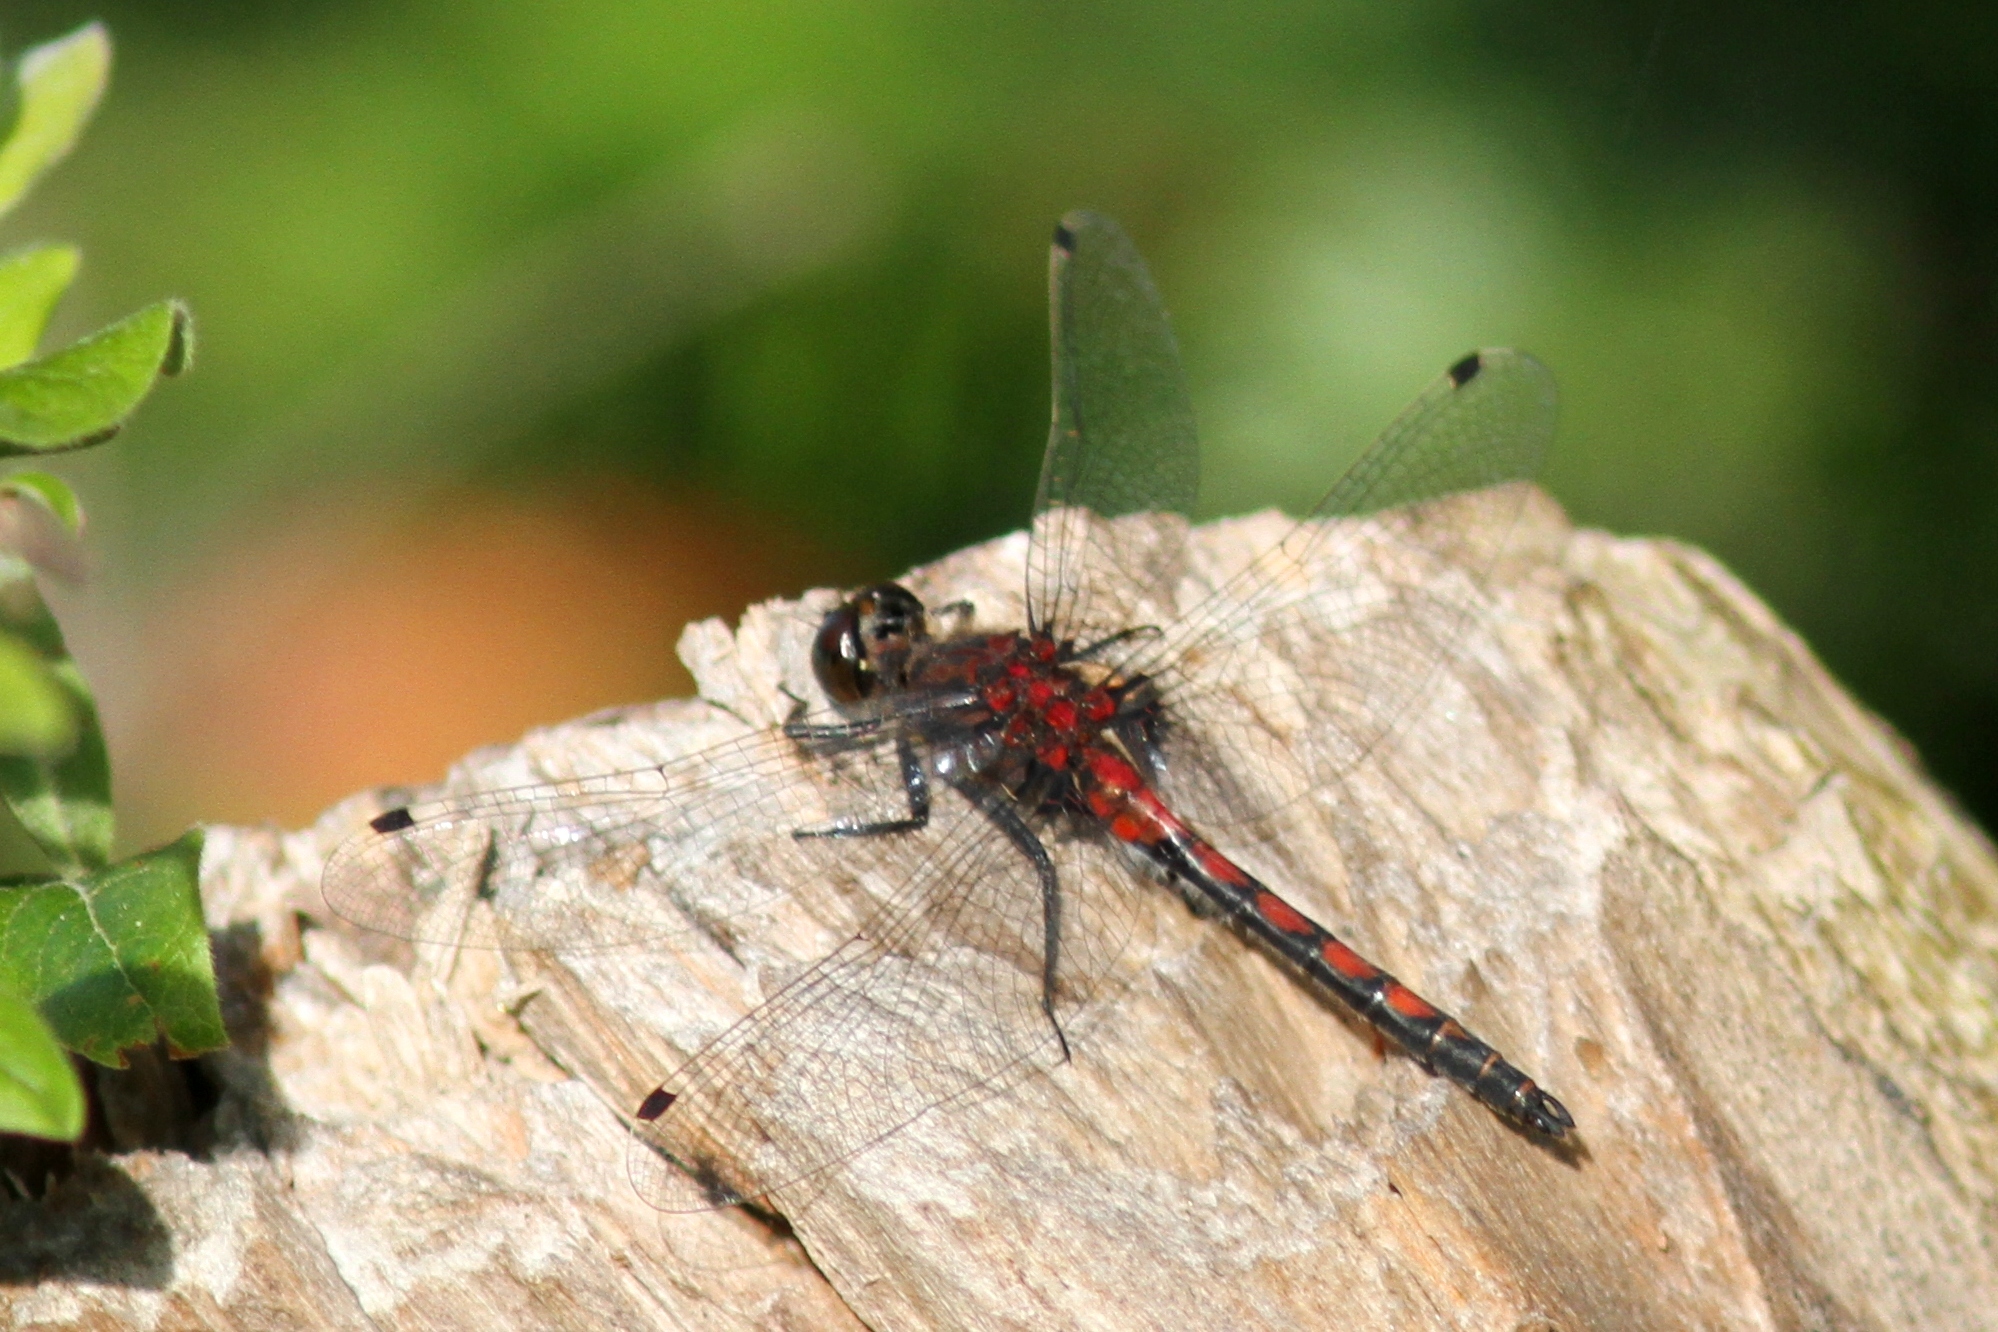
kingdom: Animalia
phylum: Arthropoda
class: Insecta
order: Odonata
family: Libellulidae
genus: Leucorrhinia
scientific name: Leucorrhinia hudsonica
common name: Hudsonian whiteface
